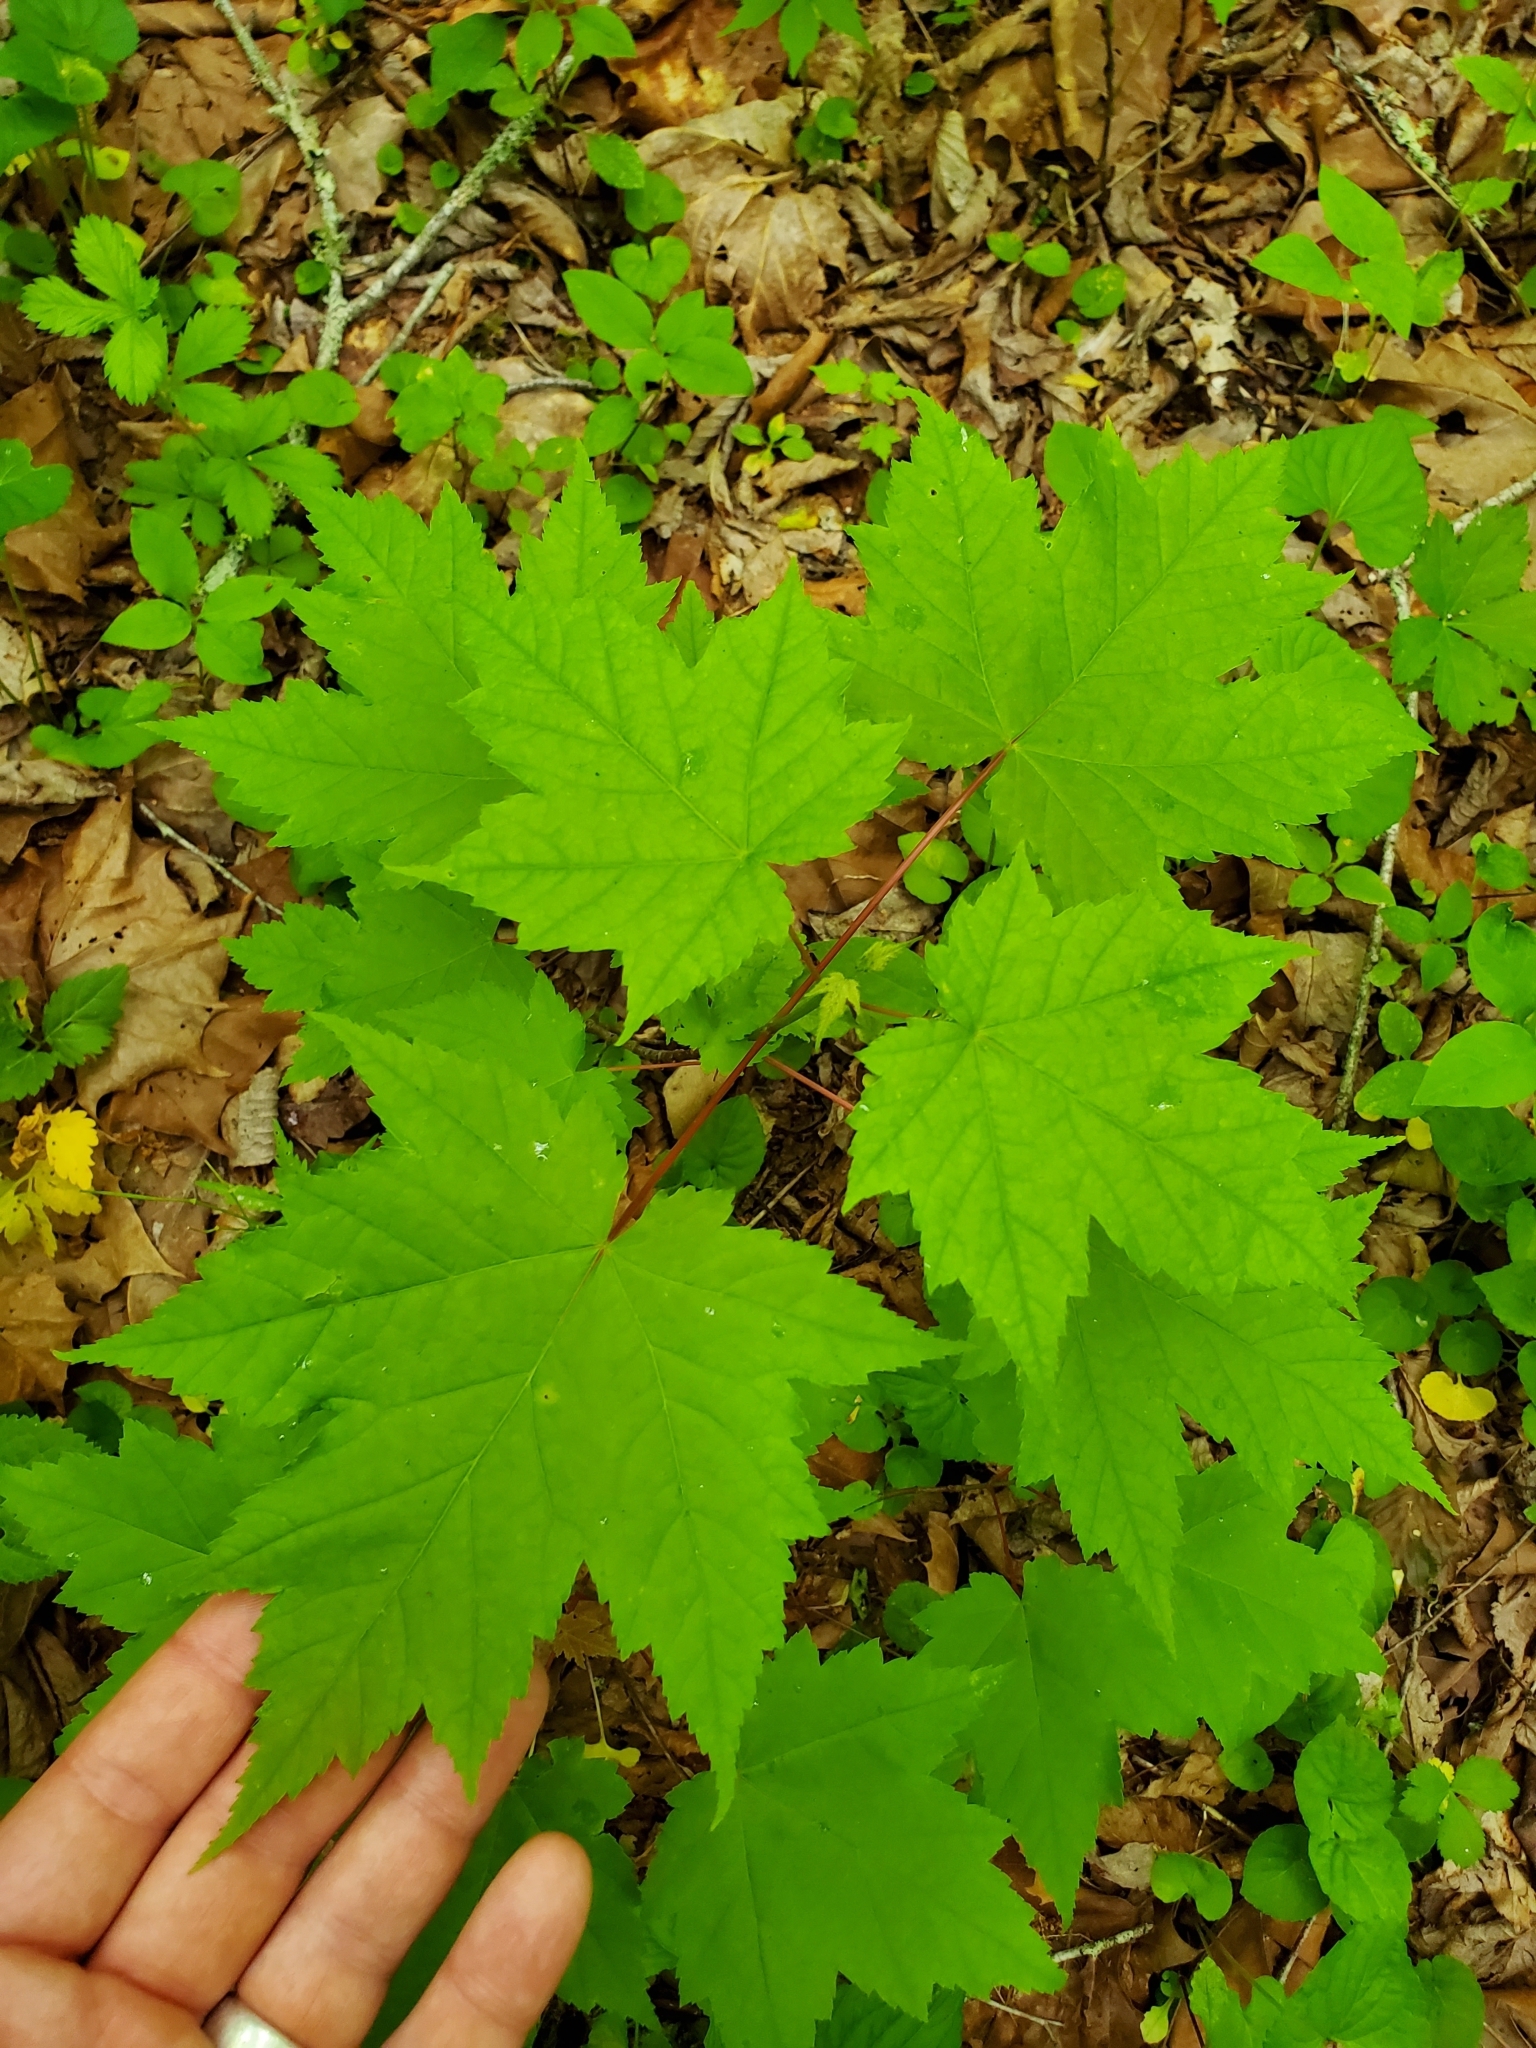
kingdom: Plantae
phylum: Tracheophyta
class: Magnoliopsida
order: Sapindales
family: Sapindaceae
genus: Acer
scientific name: Acer rubrum
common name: Red maple
